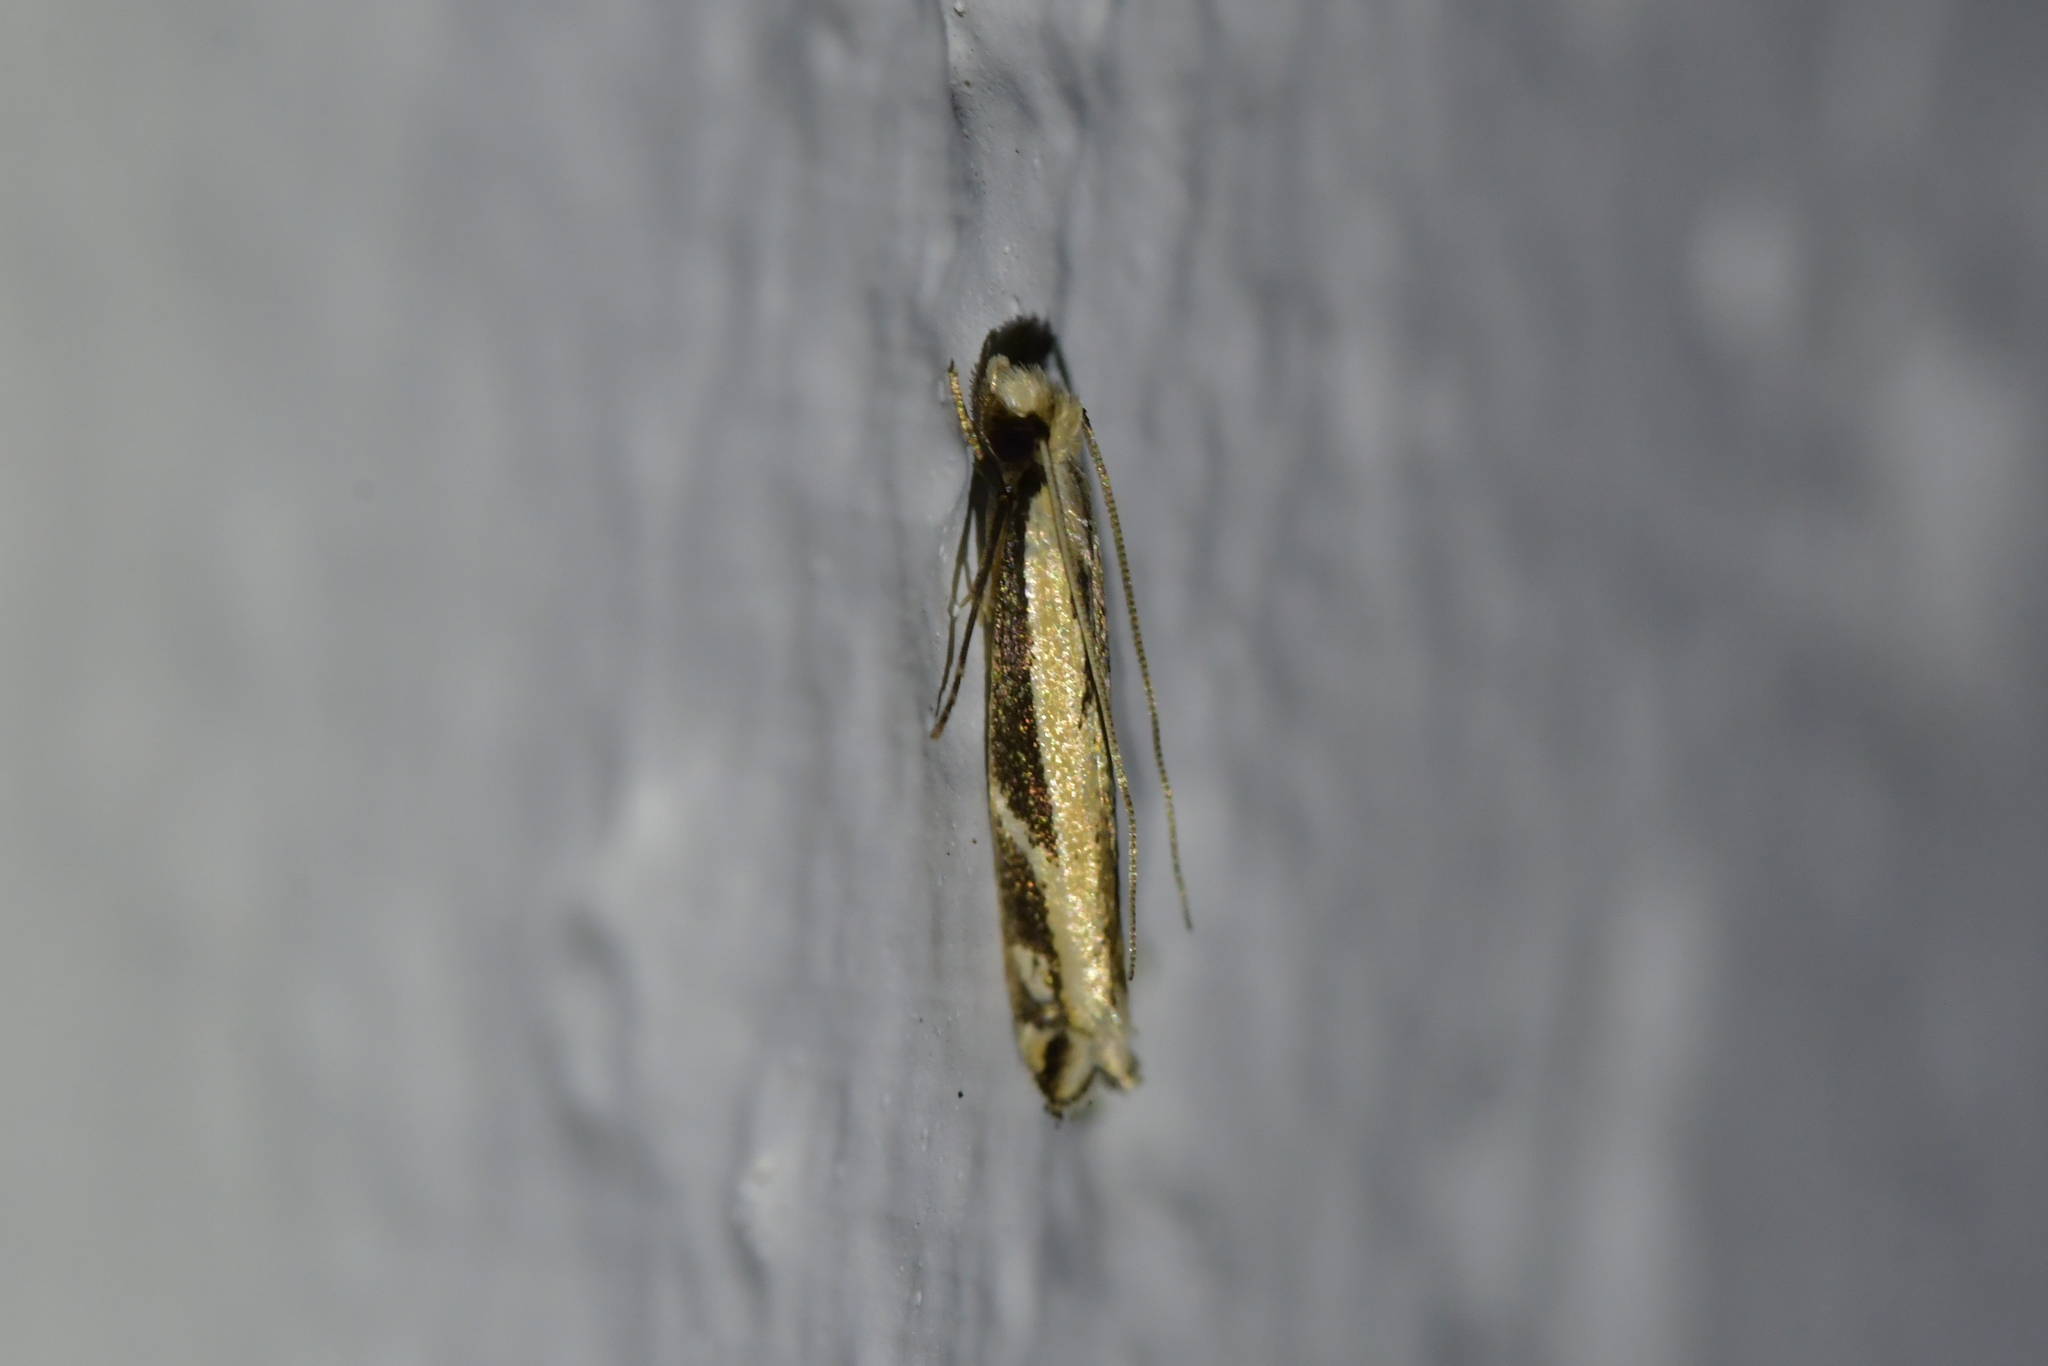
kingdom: Animalia
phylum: Arthropoda
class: Insecta
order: Lepidoptera
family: Tineidae
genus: Erechthias
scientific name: Erechthias terminella
